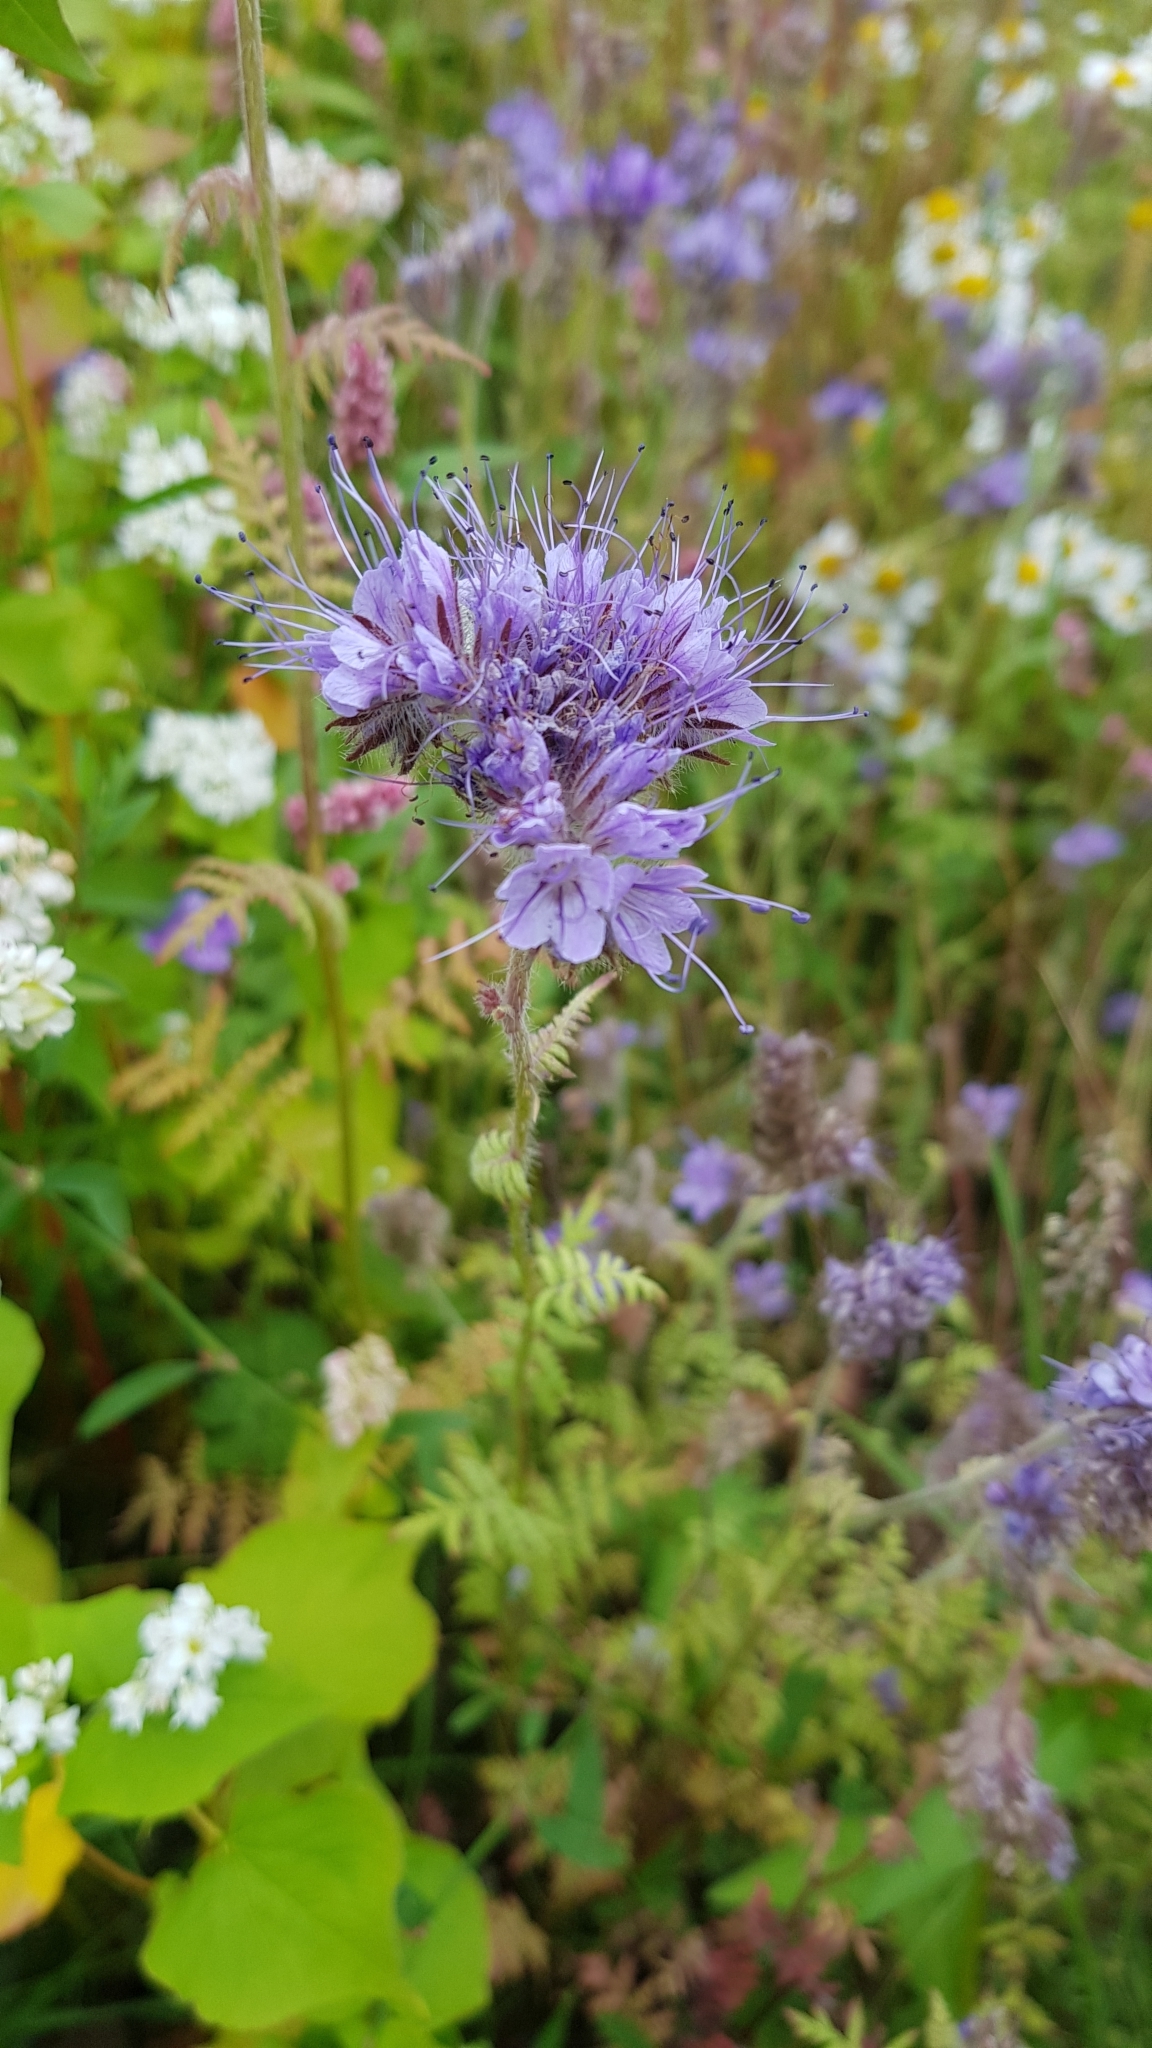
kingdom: Plantae
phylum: Tracheophyta
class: Magnoliopsida
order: Boraginales
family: Hydrophyllaceae
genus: Phacelia
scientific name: Phacelia tanacetifolia
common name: Phacelia
